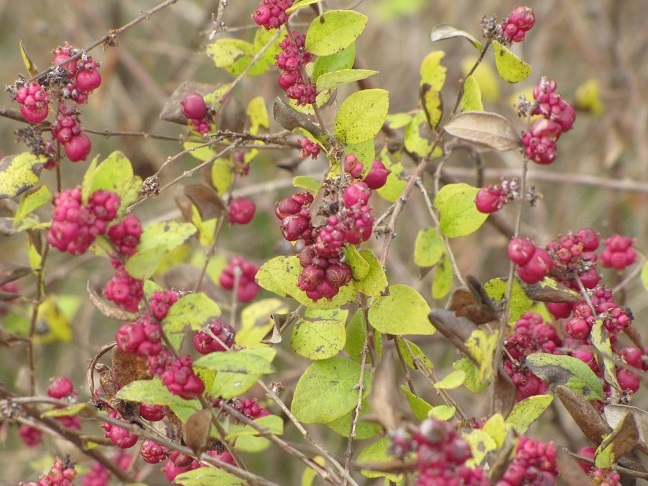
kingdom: Plantae
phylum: Tracheophyta
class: Magnoliopsida
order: Dipsacales
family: Caprifoliaceae
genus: Symphoricarpos
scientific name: Symphoricarpos orbiculatus
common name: Coralberry
